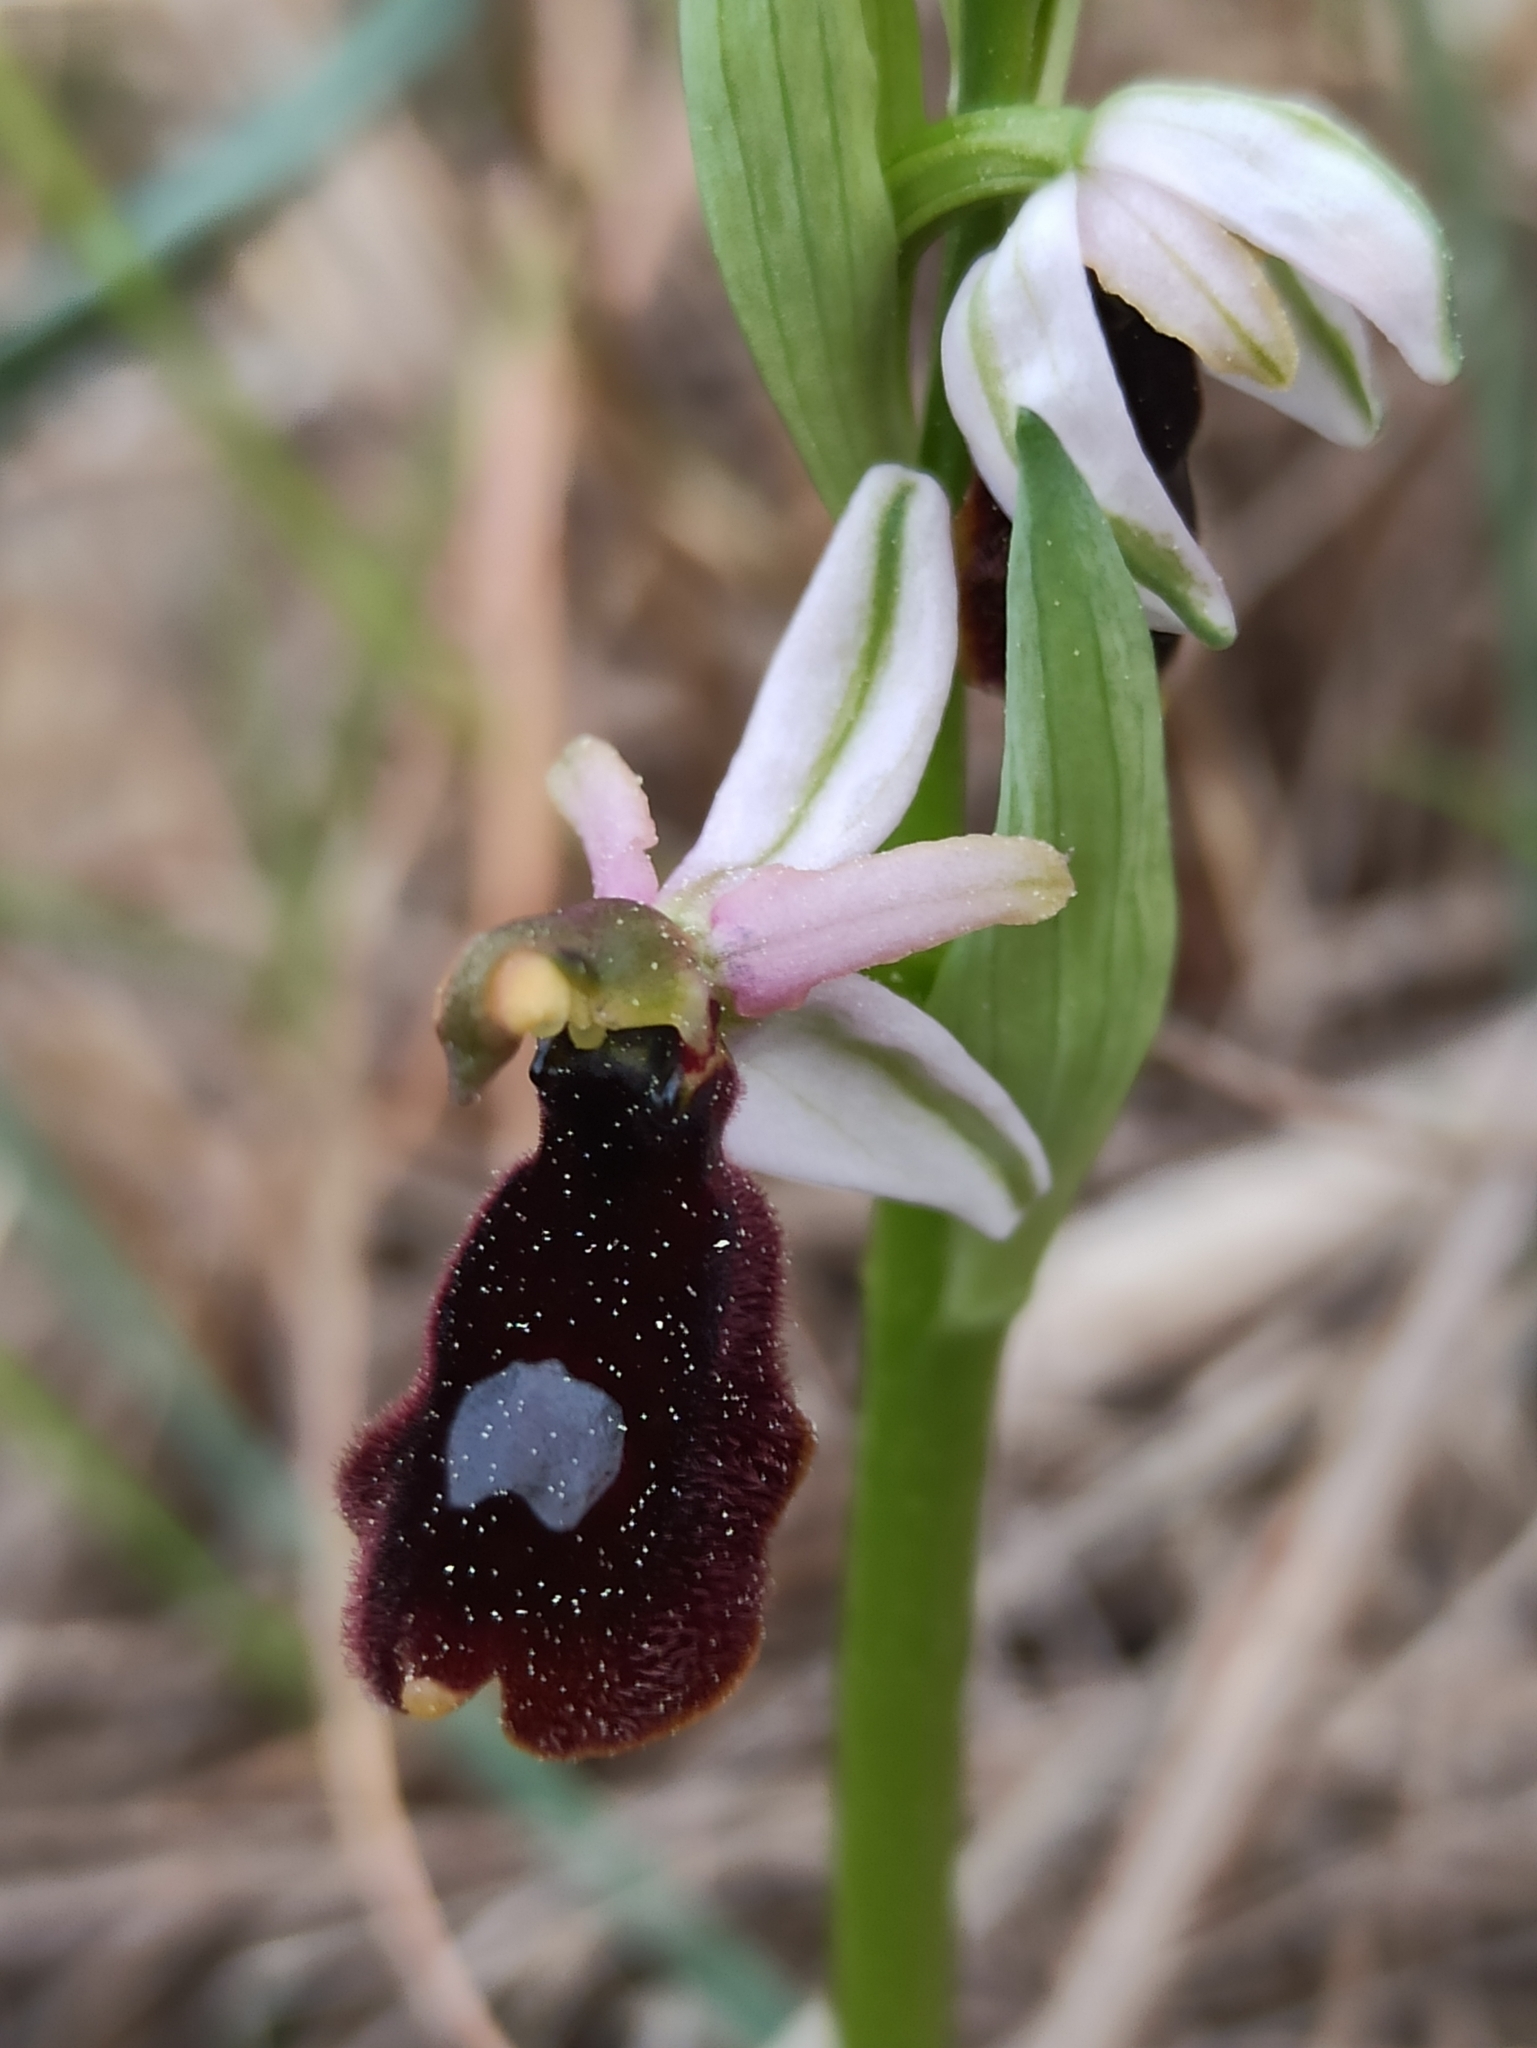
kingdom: Plantae
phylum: Tracheophyta
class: Liliopsida
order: Asparagales
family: Orchidaceae
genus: Ophrys
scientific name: Ophrys flavicans
